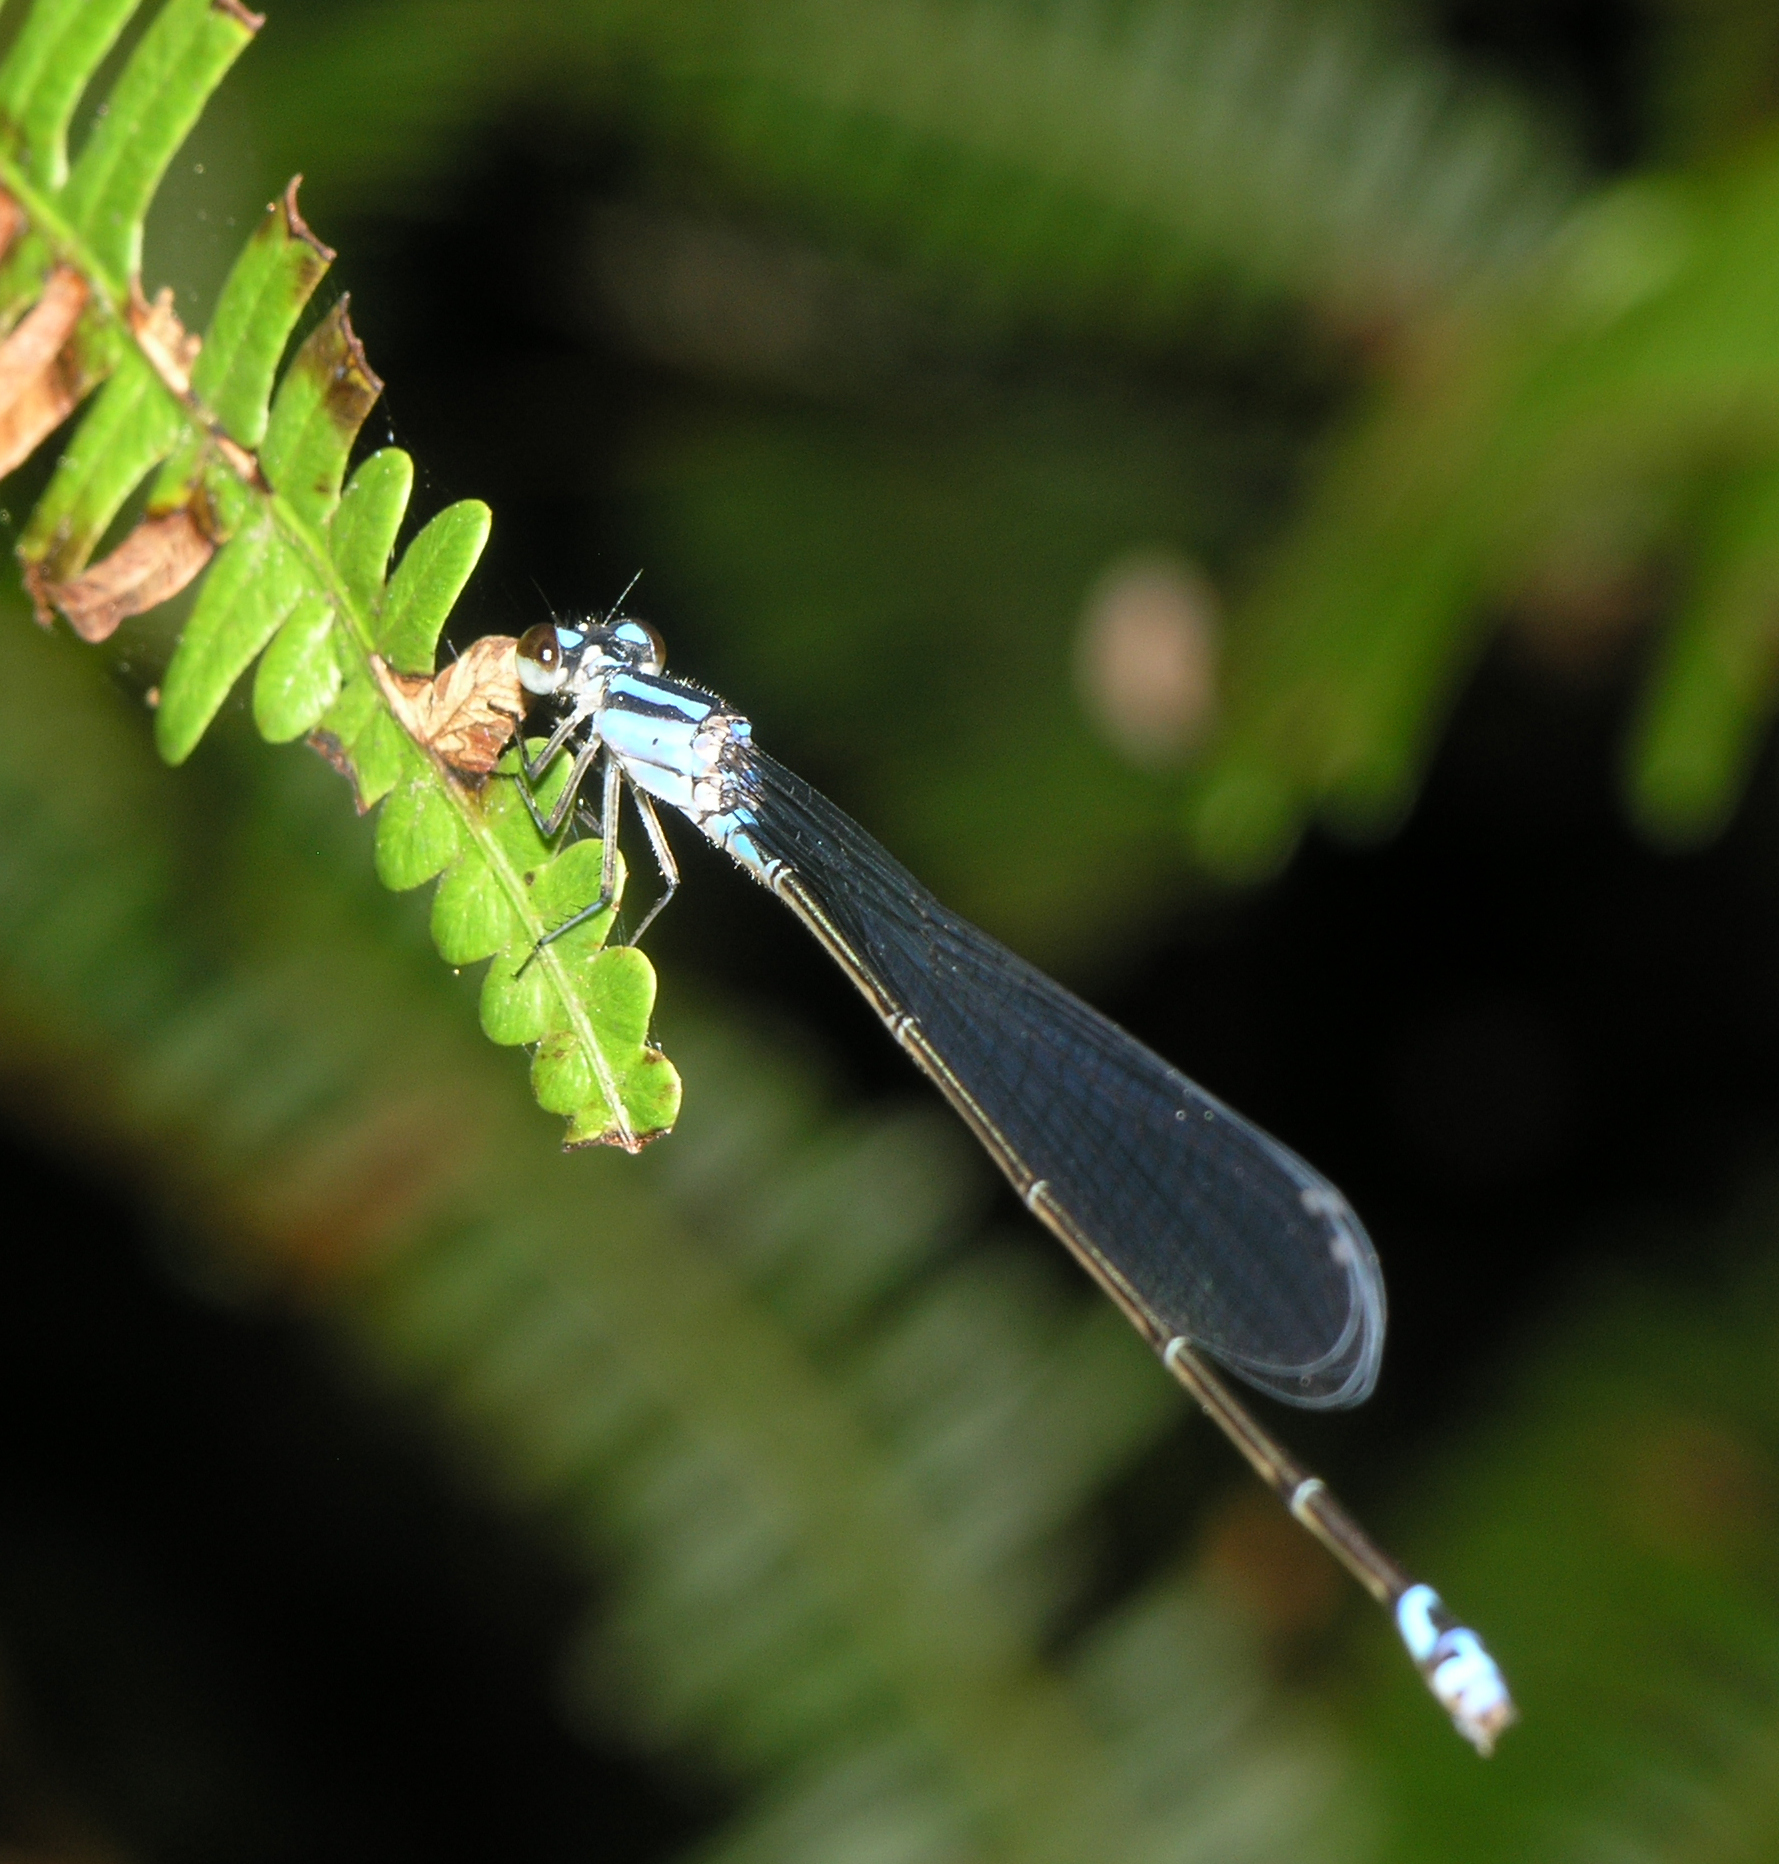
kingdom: Animalia
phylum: Arthropoda
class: Insecta
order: Odonata
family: Coenagrionidae
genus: Archibasis
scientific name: Archibasis viola
